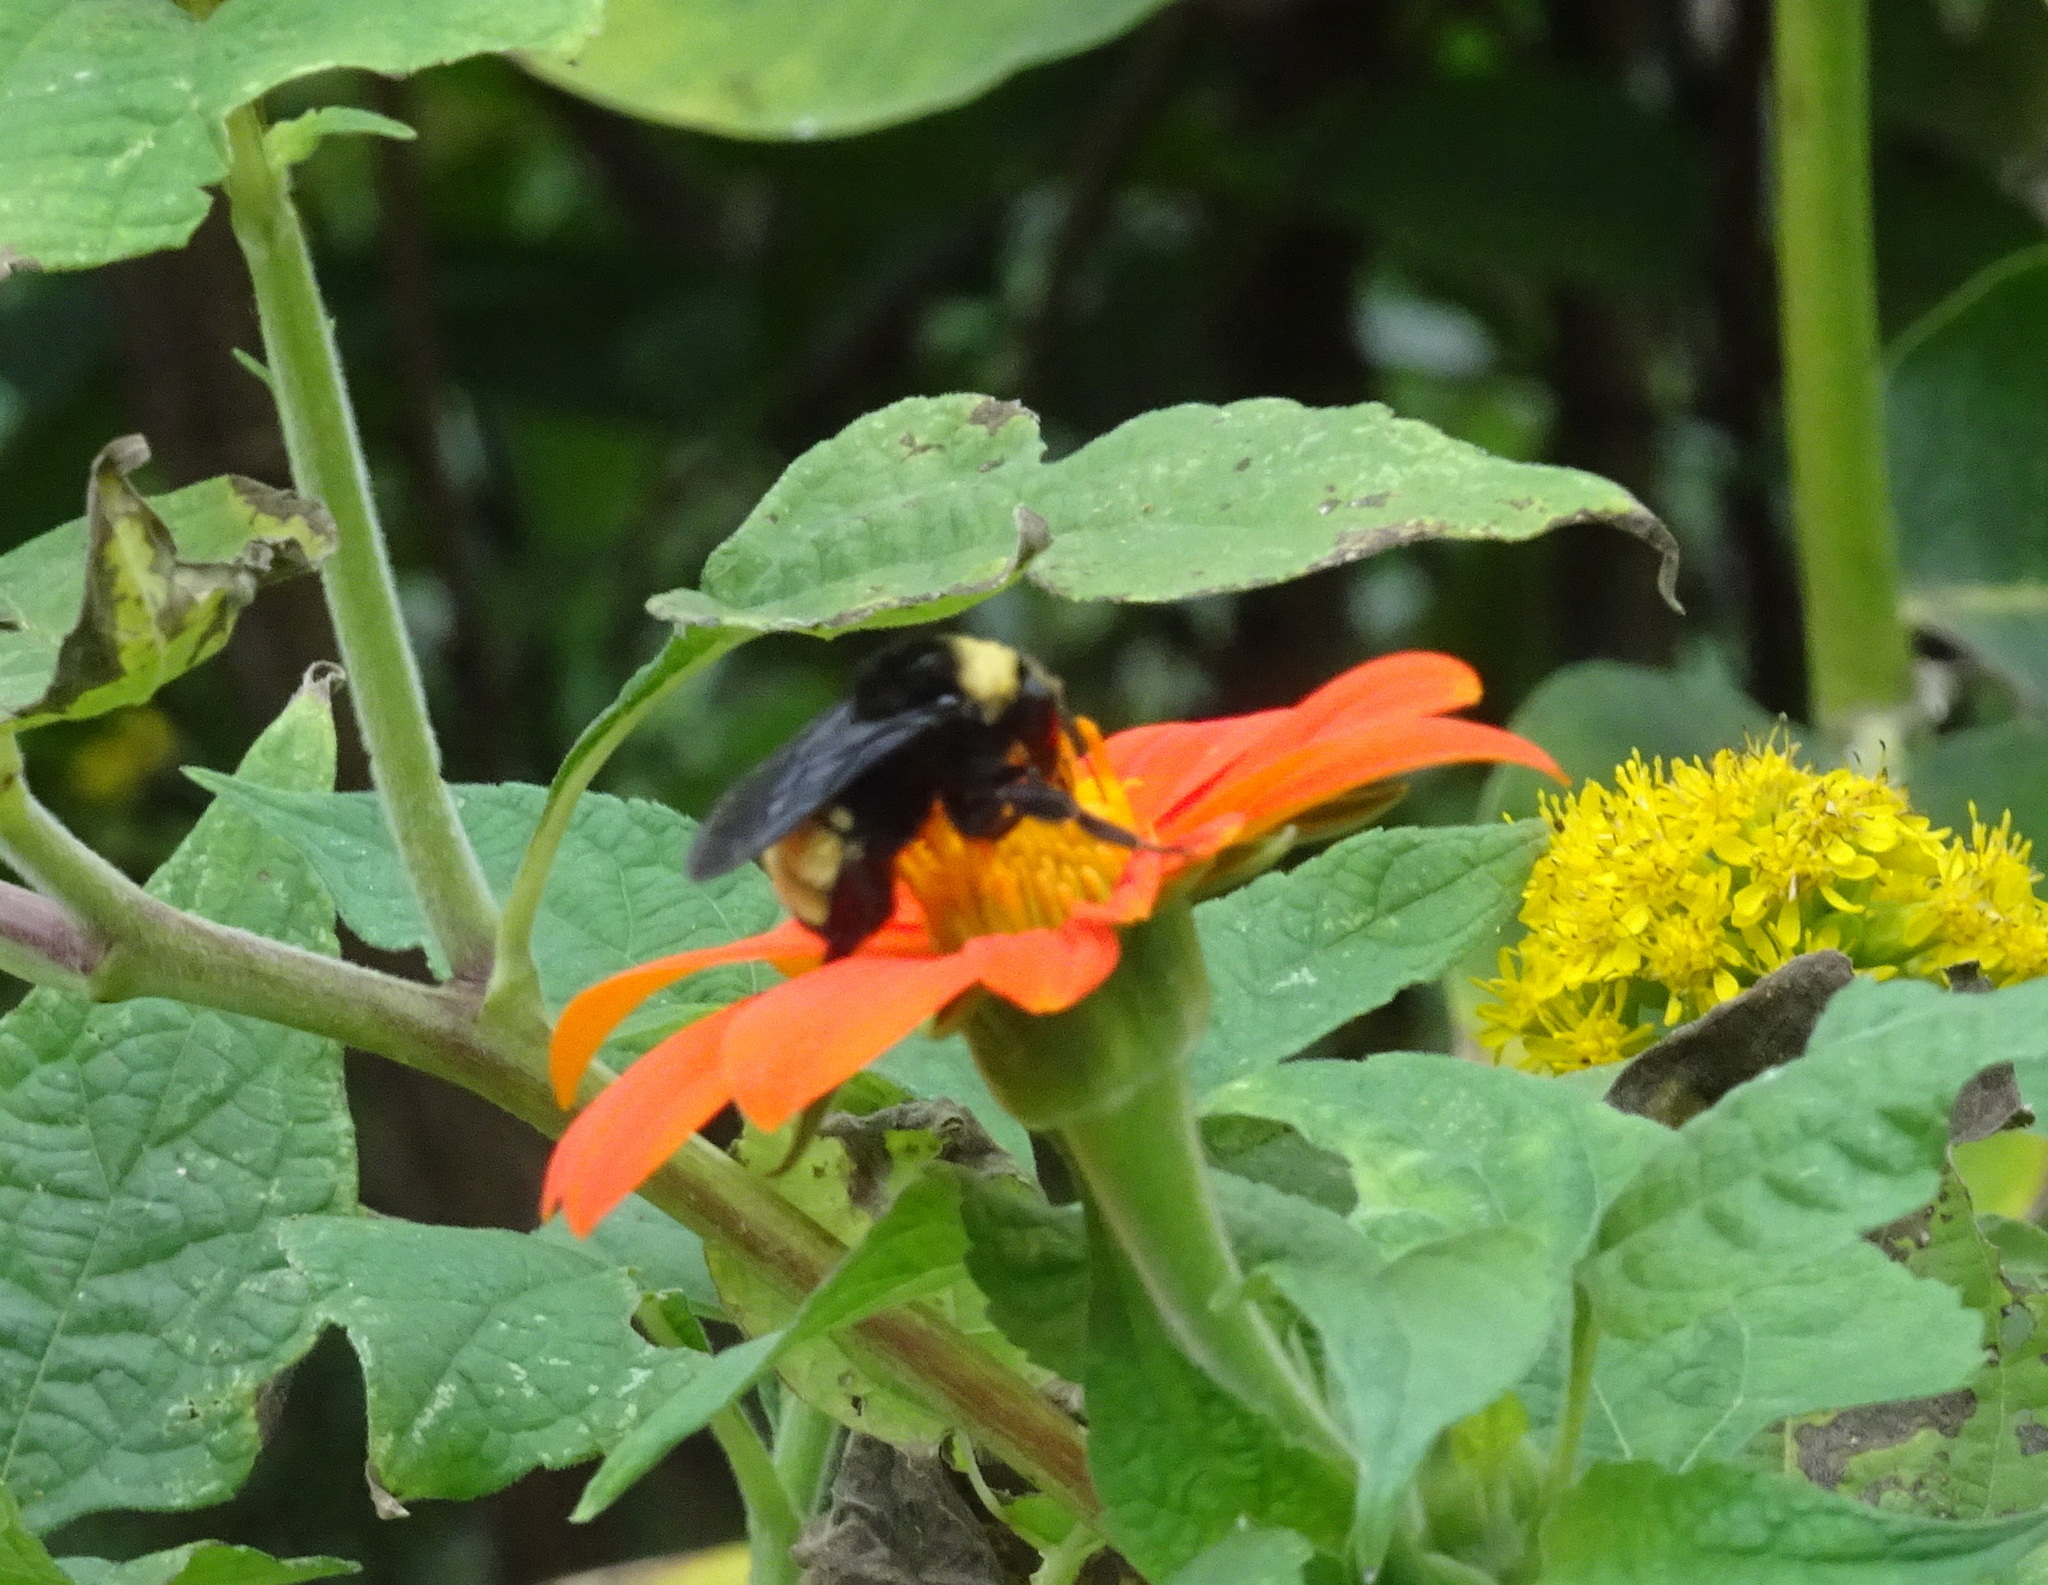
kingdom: Animalia
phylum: Arthropoda
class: Insecta
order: Hymenoptera
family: Apidae
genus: Bombus
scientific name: Bombus pensylvanicus
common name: Bumble bee
